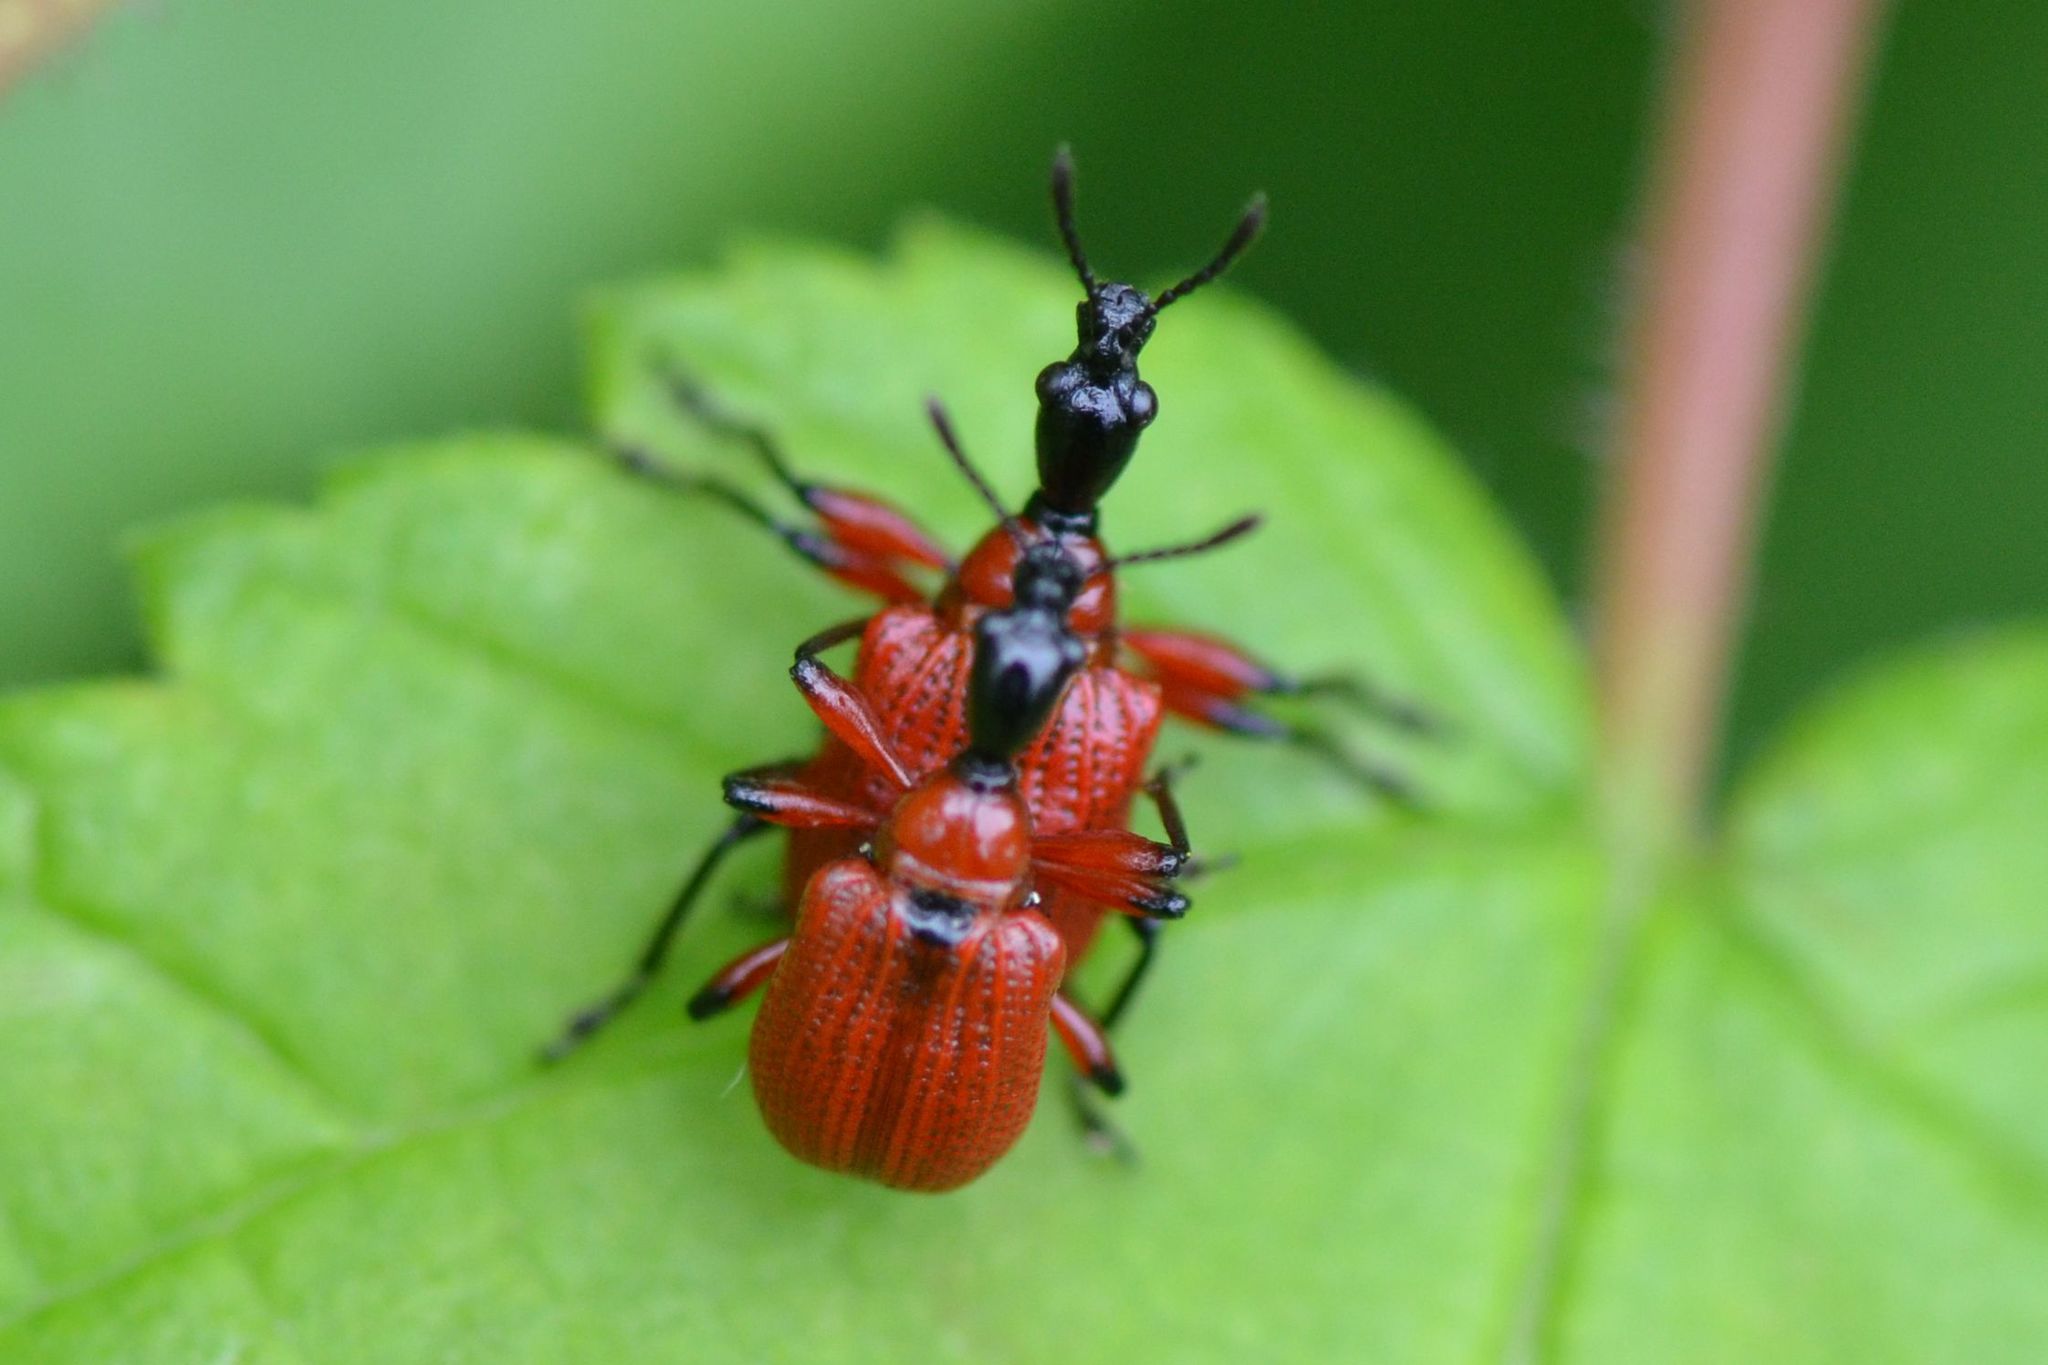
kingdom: Animalia
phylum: Arthropoda
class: Insecta
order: Coleoptera
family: Attelabidae
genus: Apoderus
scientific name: Apoderus coryli
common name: Hazel leaf roller
